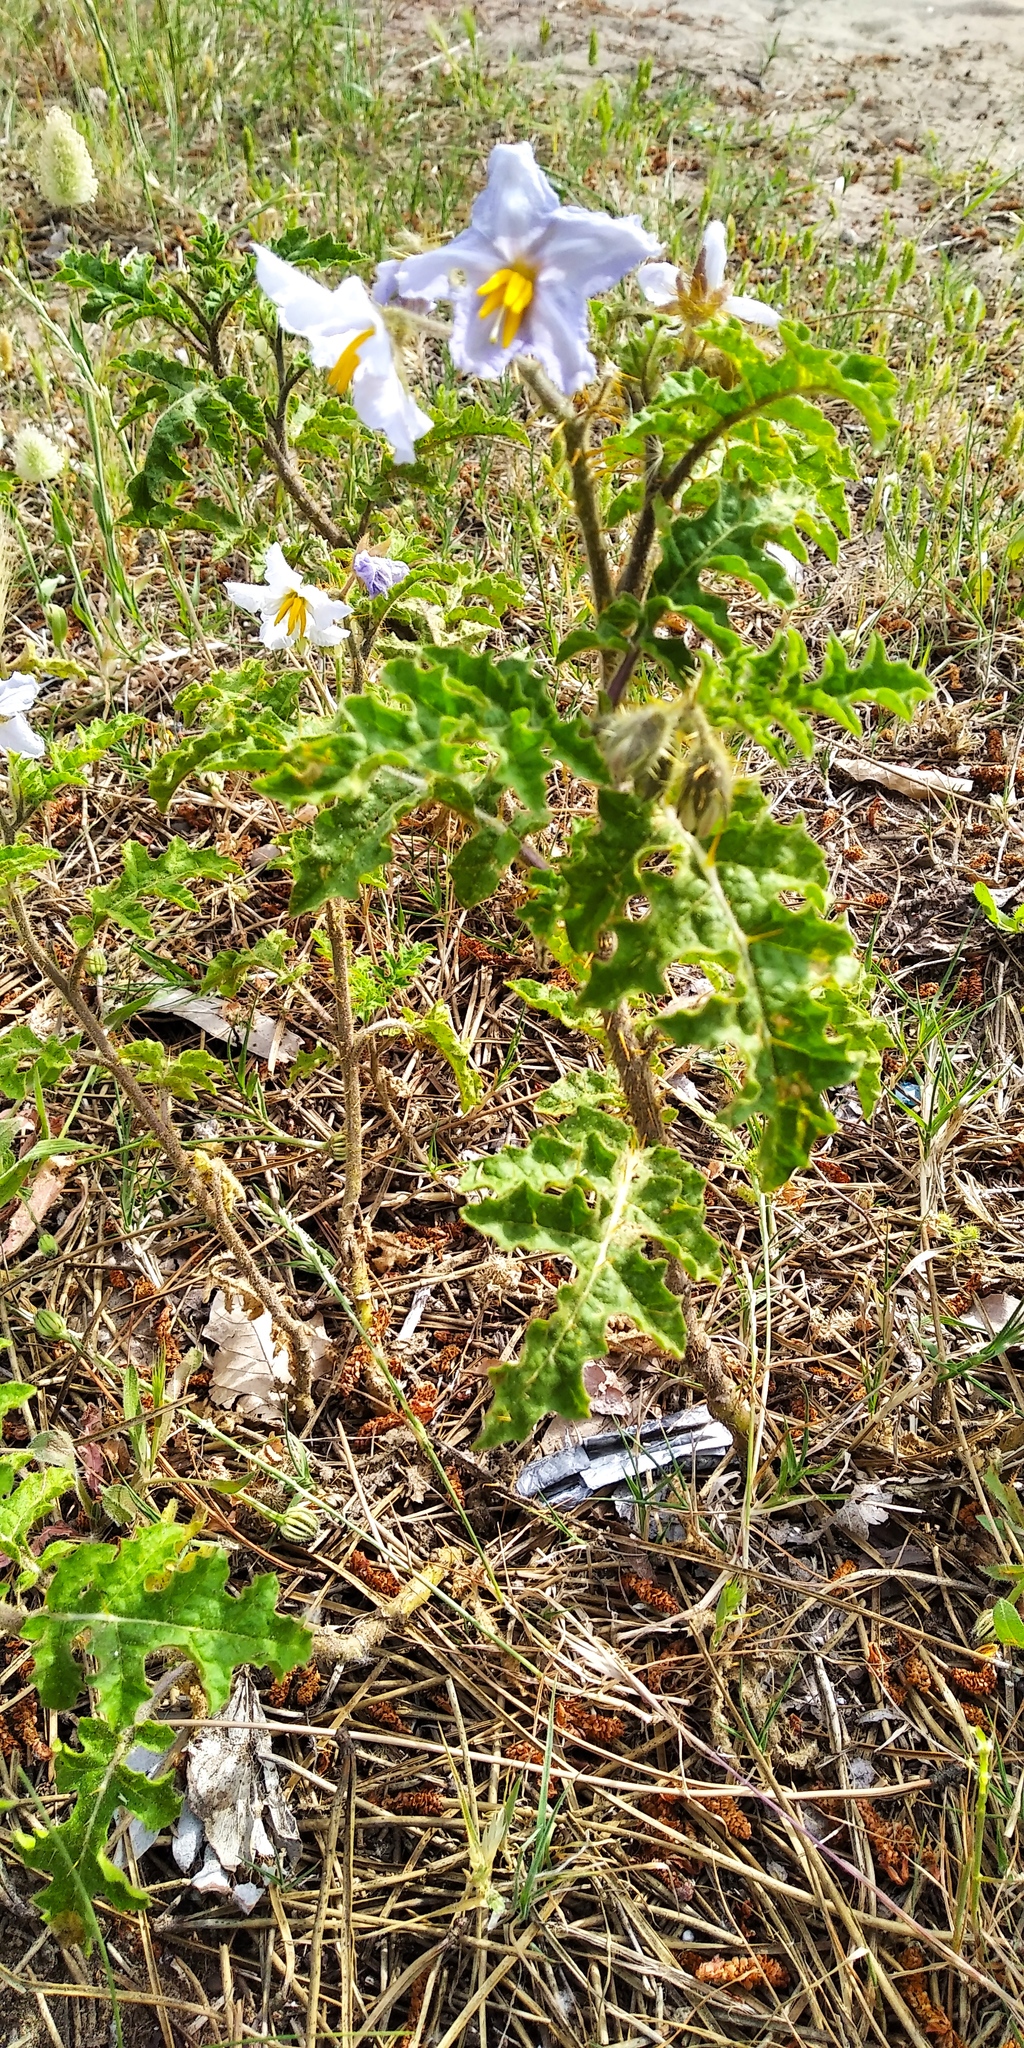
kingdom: Plantae
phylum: Tracheophyta
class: Magnoliopsida
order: Solanales
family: Solanaceae
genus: Solanum
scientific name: Solanum sisymbriifolium
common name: Red buffalo-bur
